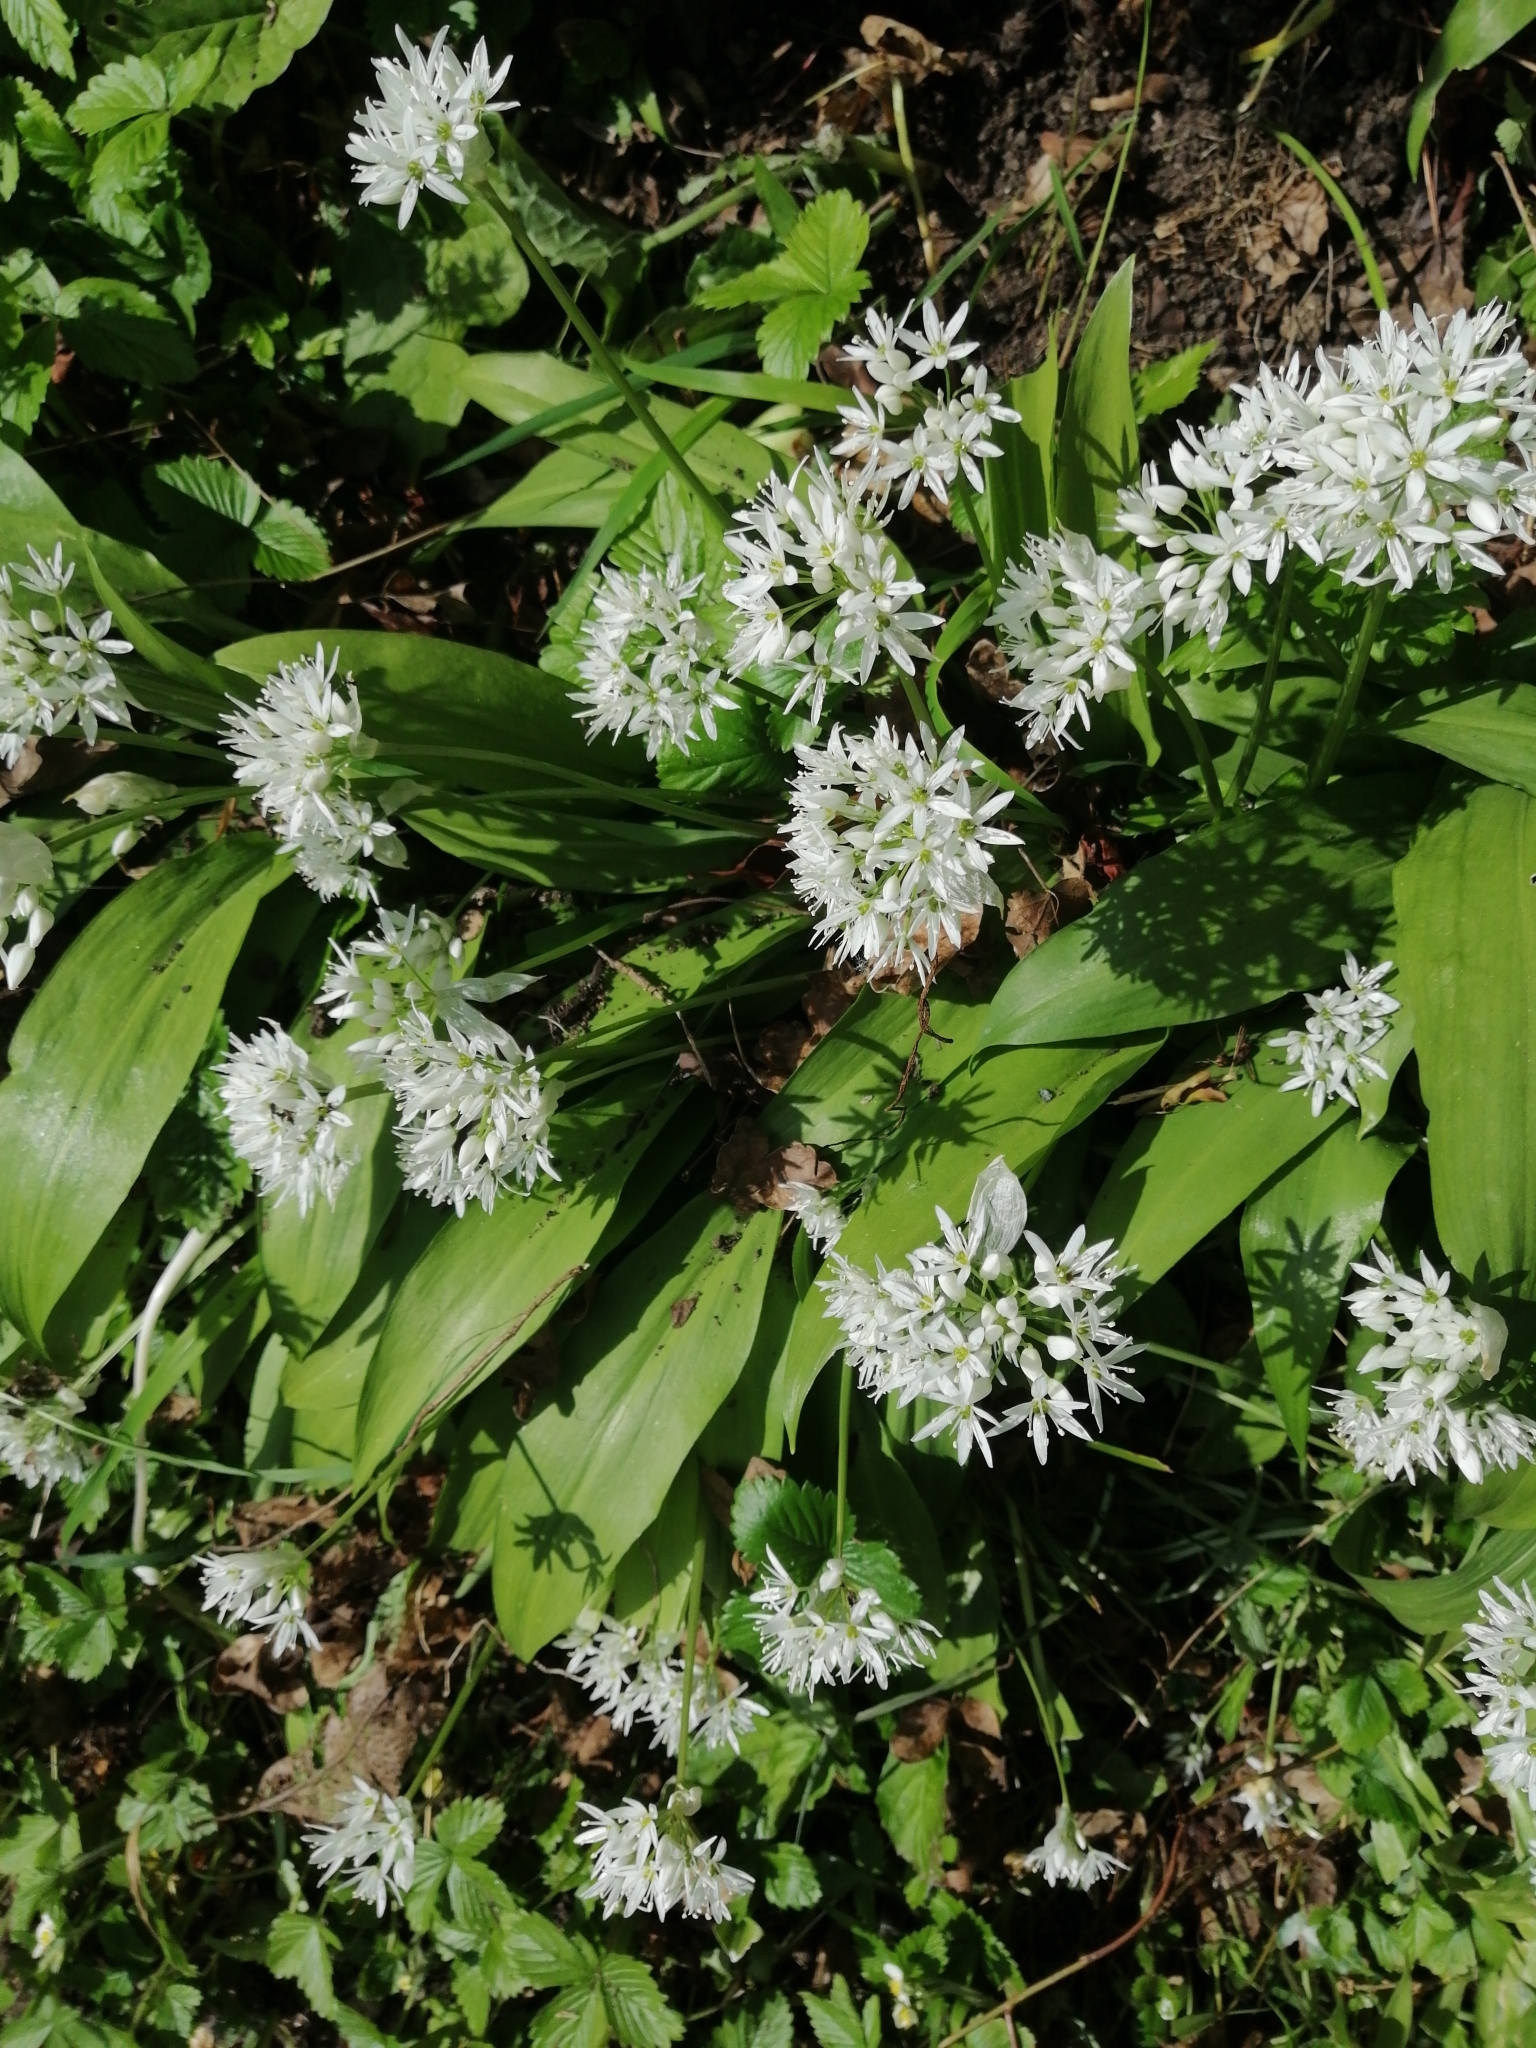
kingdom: Plantae
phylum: Tracheophyta
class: Liliopsida
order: Asparagales
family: Amaryllidaceae
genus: Allium
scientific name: Allium ursinum
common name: Ramsons
